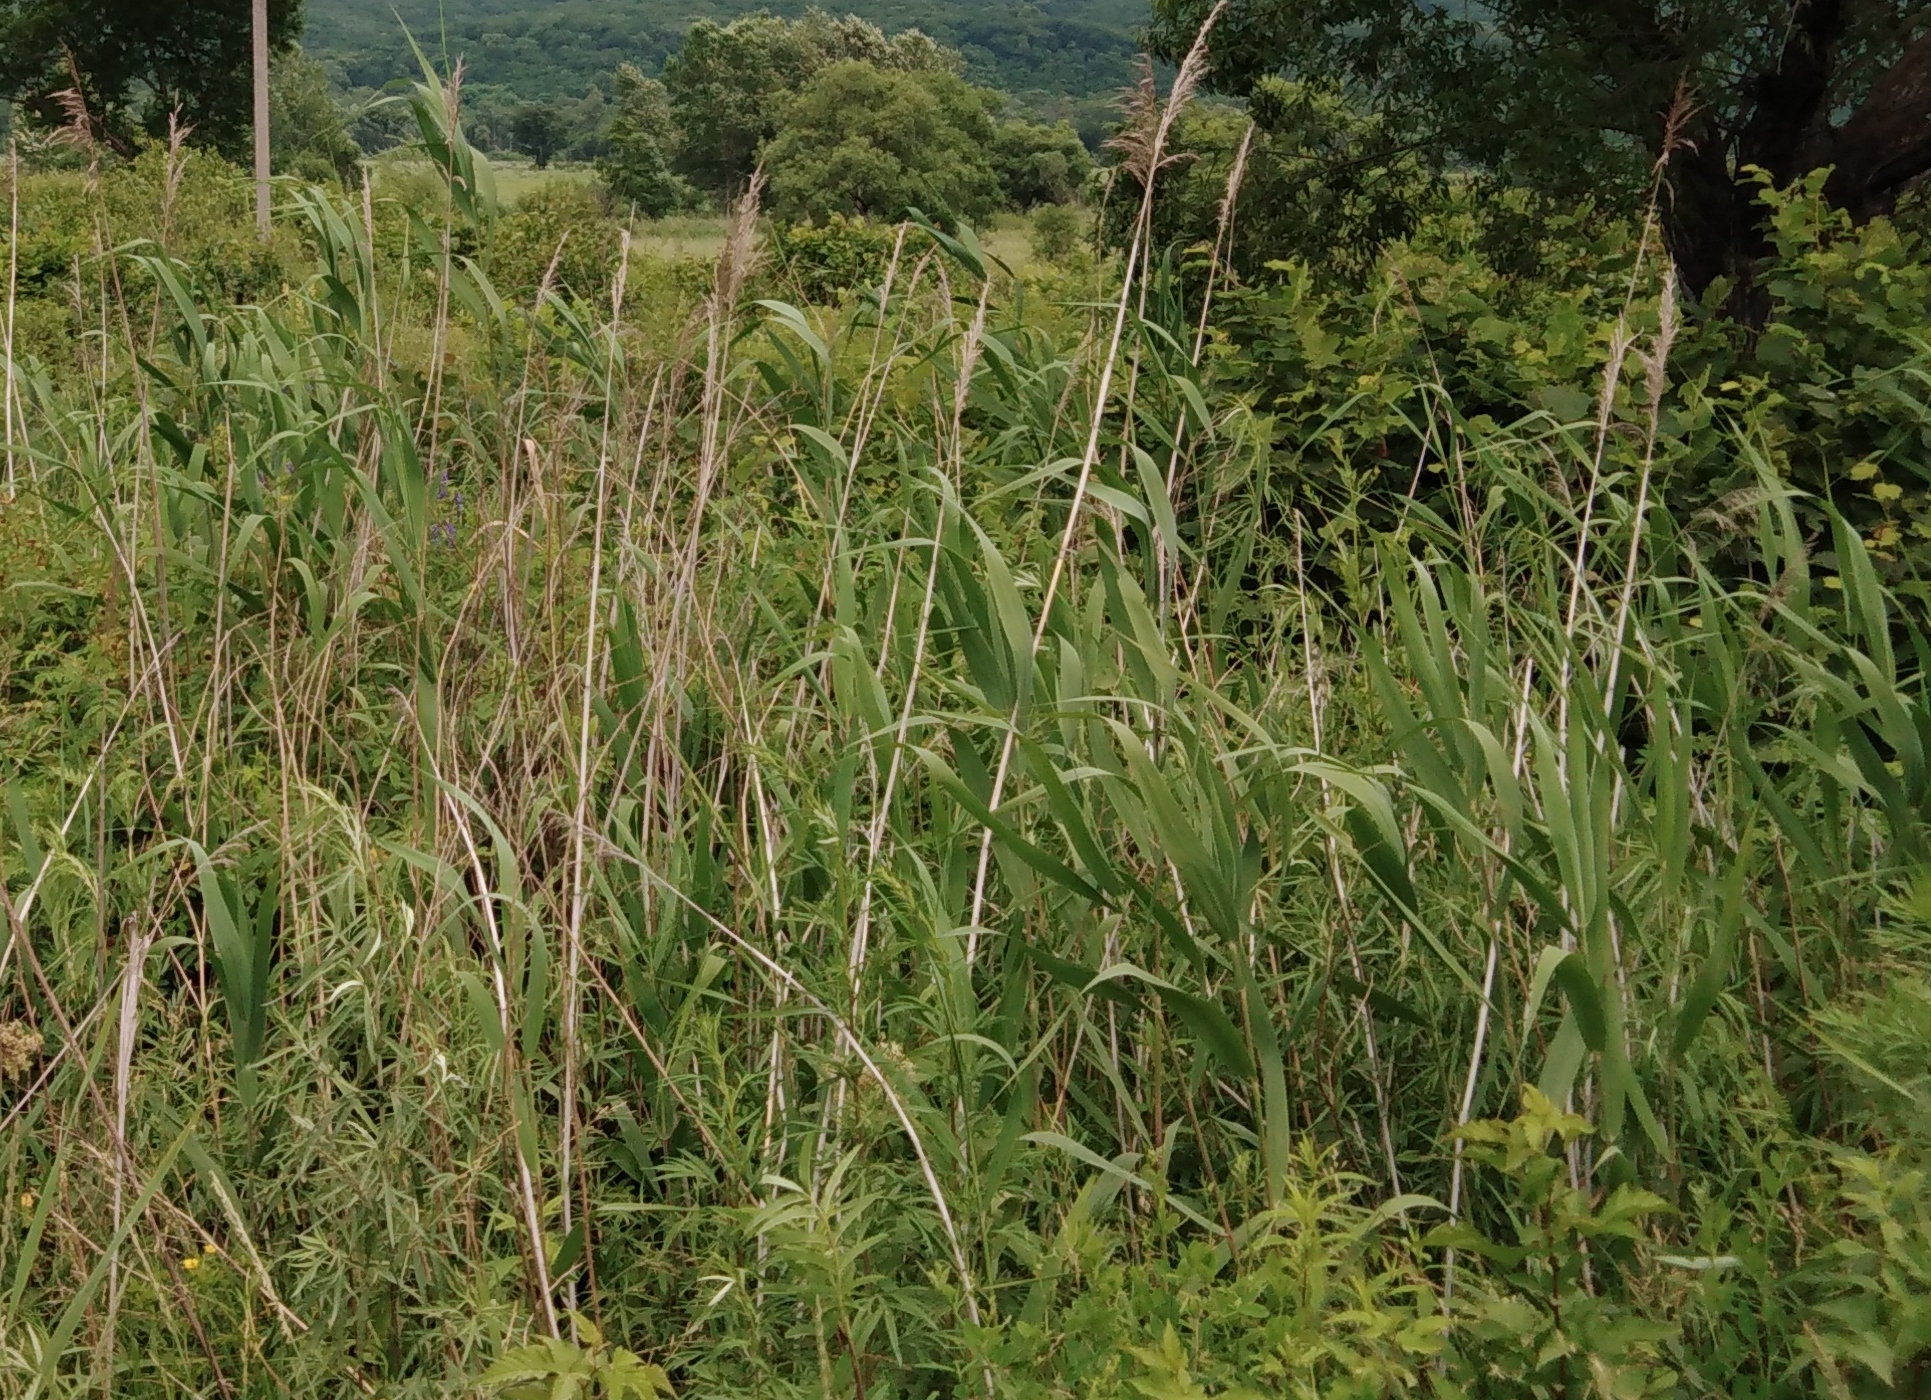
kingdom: Plantae
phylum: Tracheophyta
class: Liliopsida
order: Poales
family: Poaceae
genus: Phragmites
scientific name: Phragmites australis
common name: Common reed
